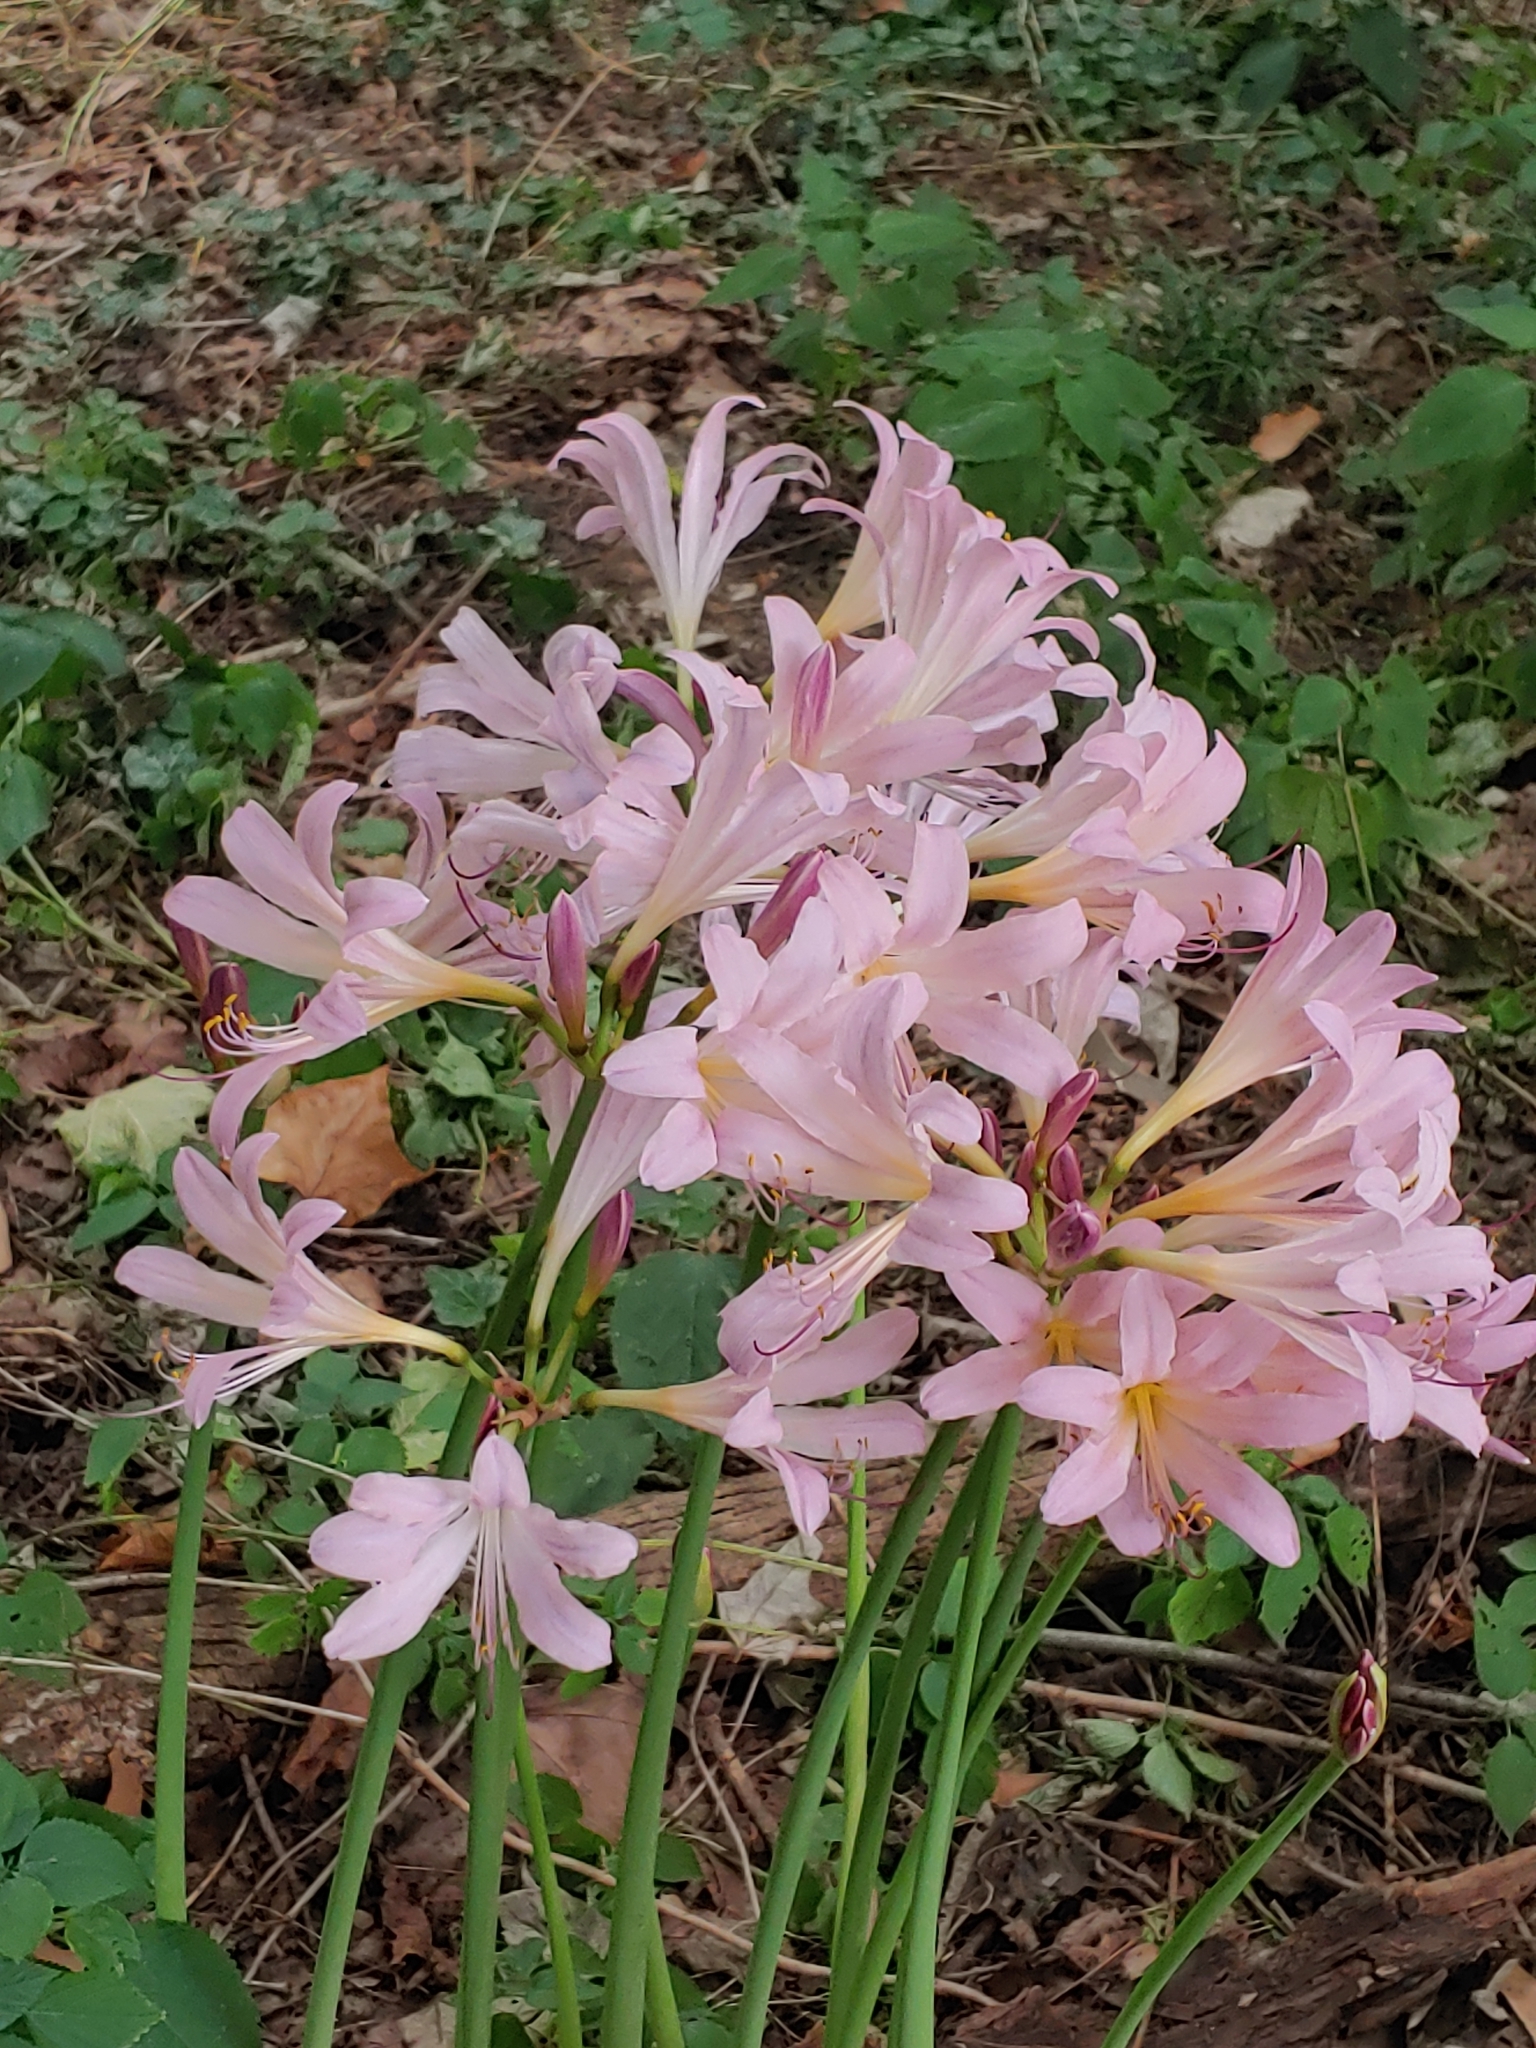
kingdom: Plantae
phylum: Tracheophyta
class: Liliopsida
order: Asparagales
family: Amaryllidaceae
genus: Lycoris
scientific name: Lycoris squamigera
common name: Magic-lily
